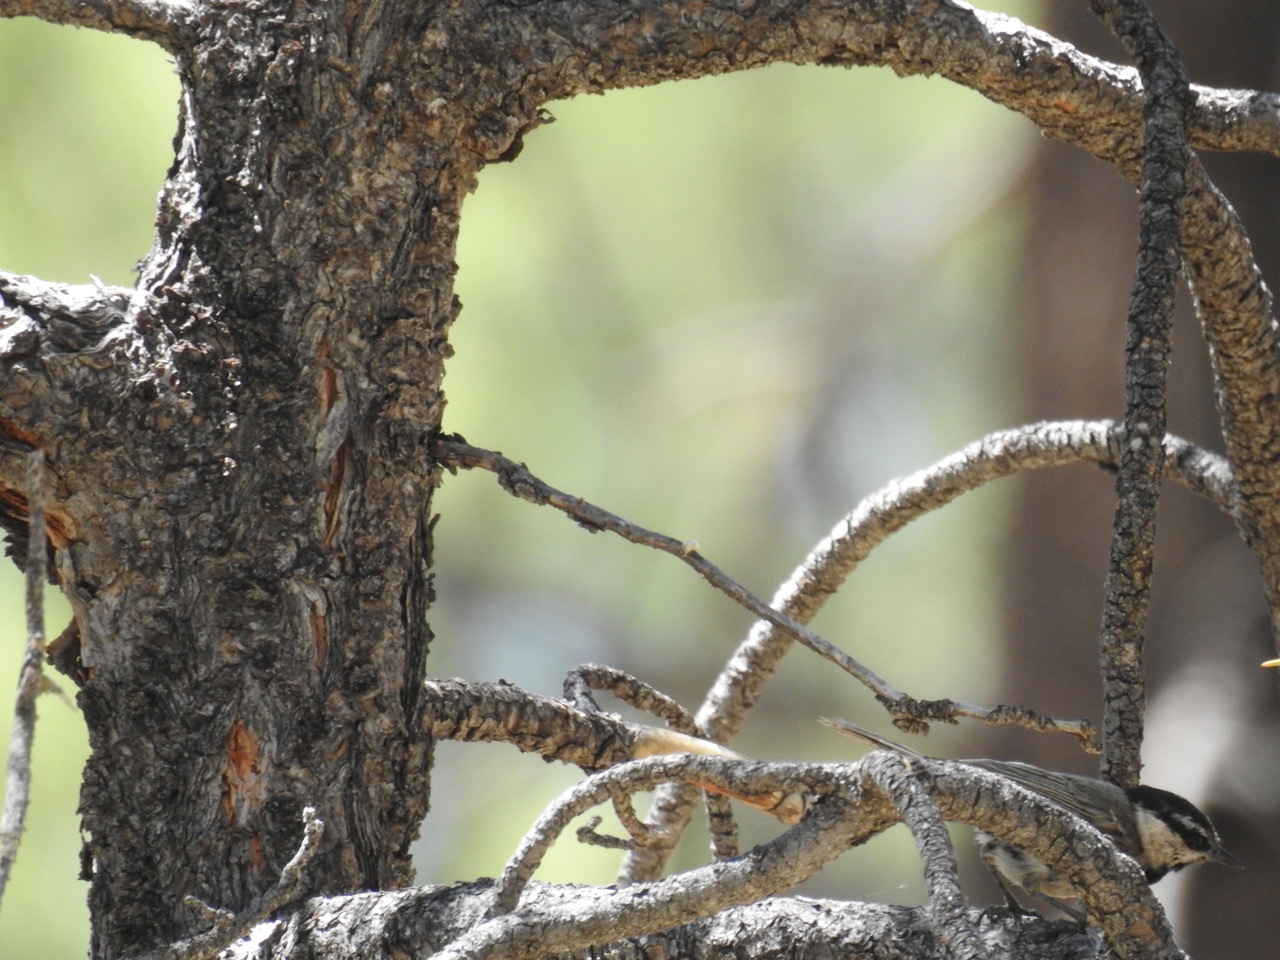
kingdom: Animalia
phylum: Chordata
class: Aves
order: Passeriformes
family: Paridae
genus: Poecile
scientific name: Poecile gambeli
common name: Mountain chickadee
